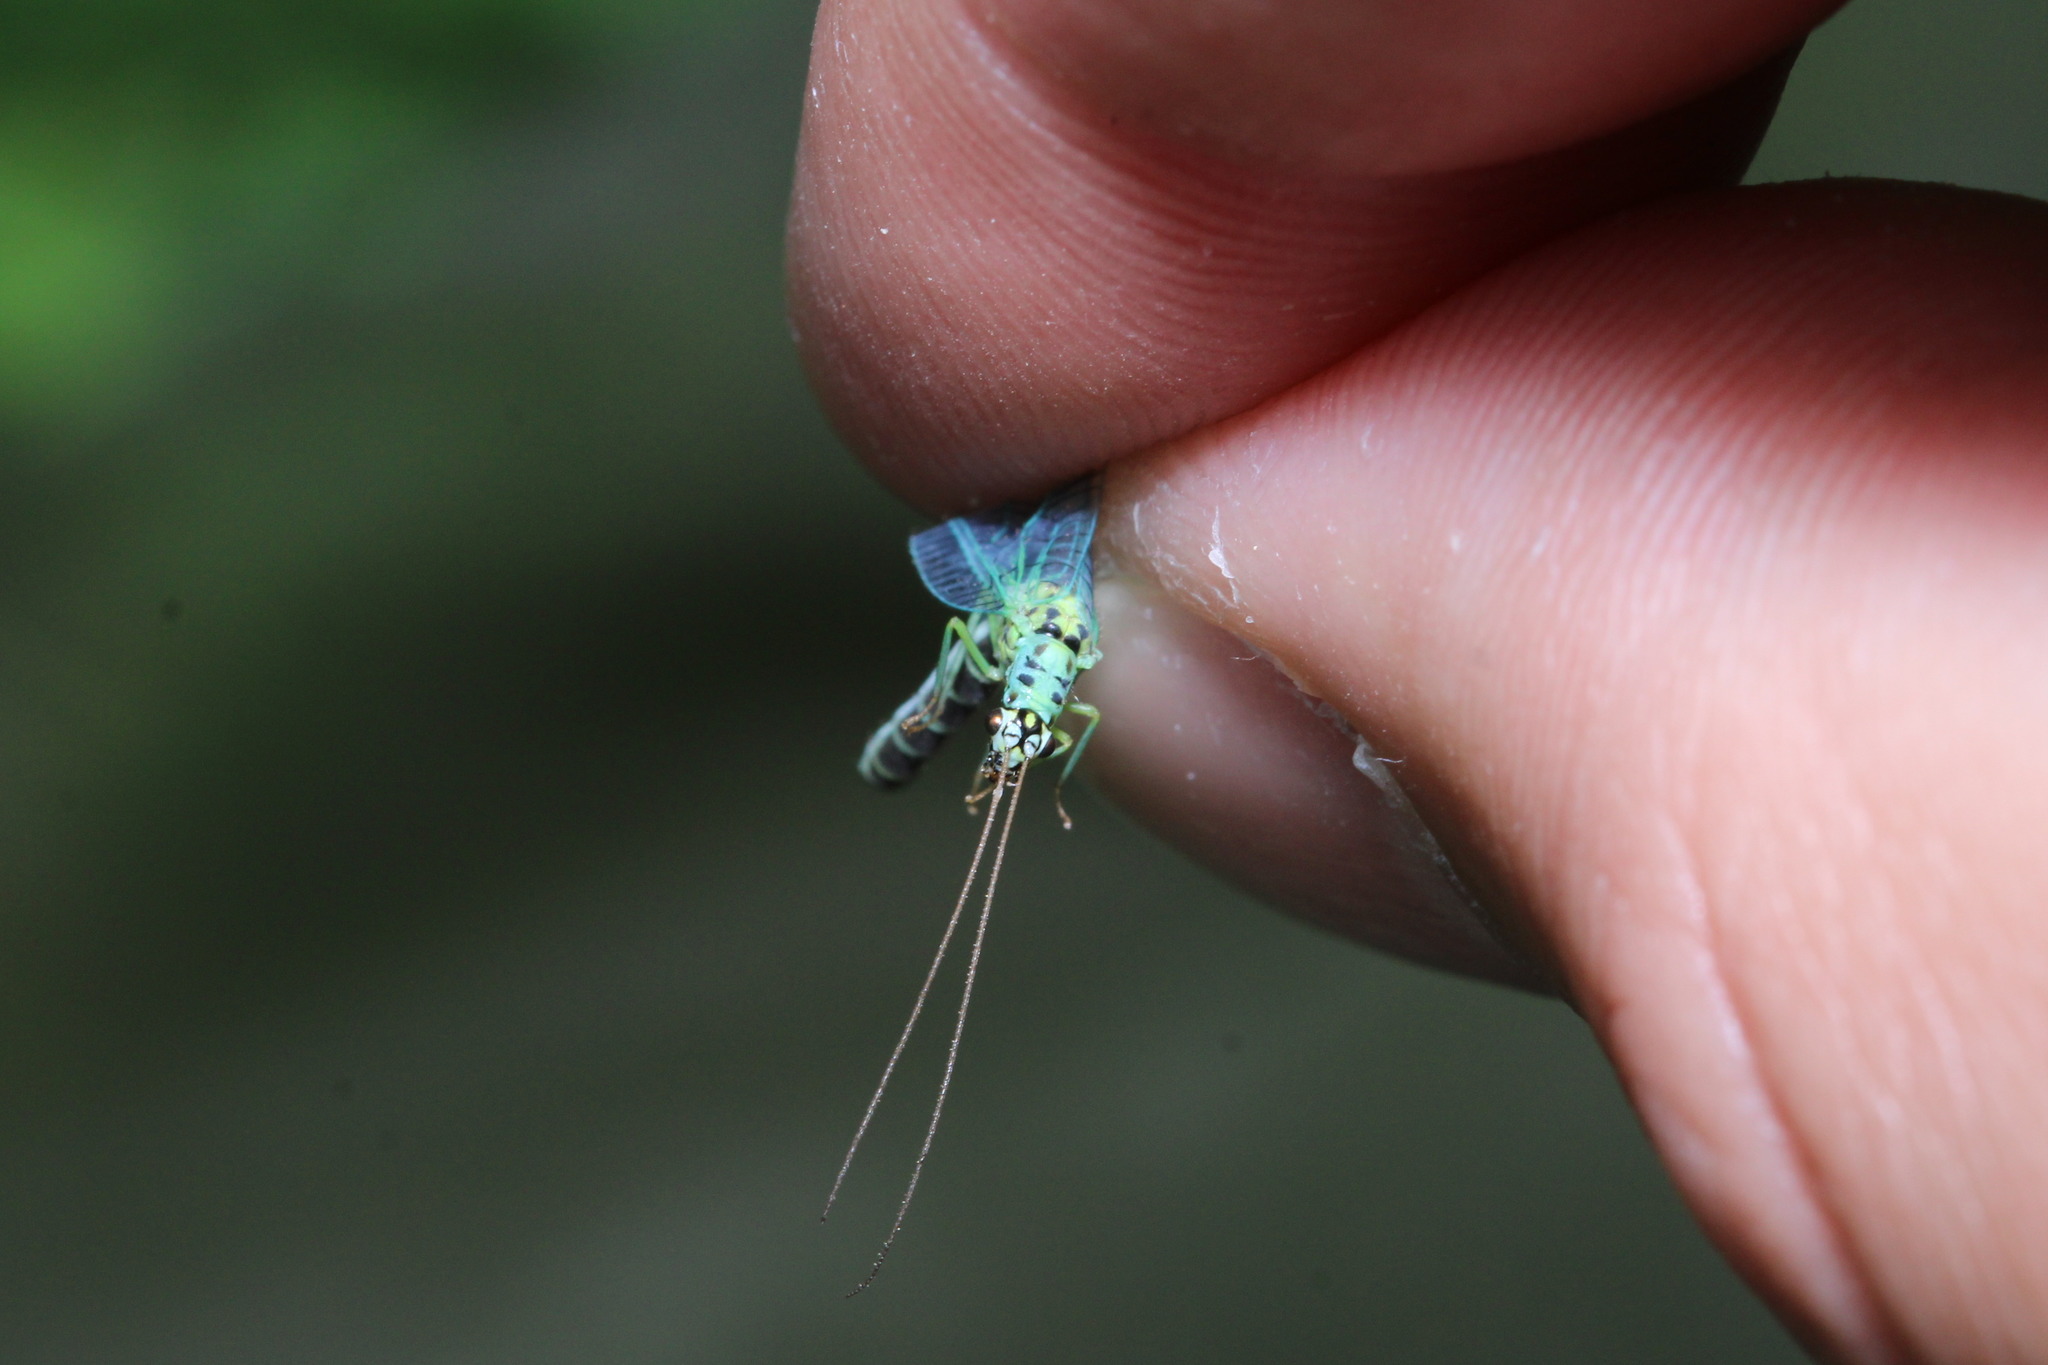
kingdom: Animalia
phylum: Arthropoda
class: Insecta
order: Neuroptera
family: Chrysopidae
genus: Chrysopa
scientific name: Chrysopa perla
